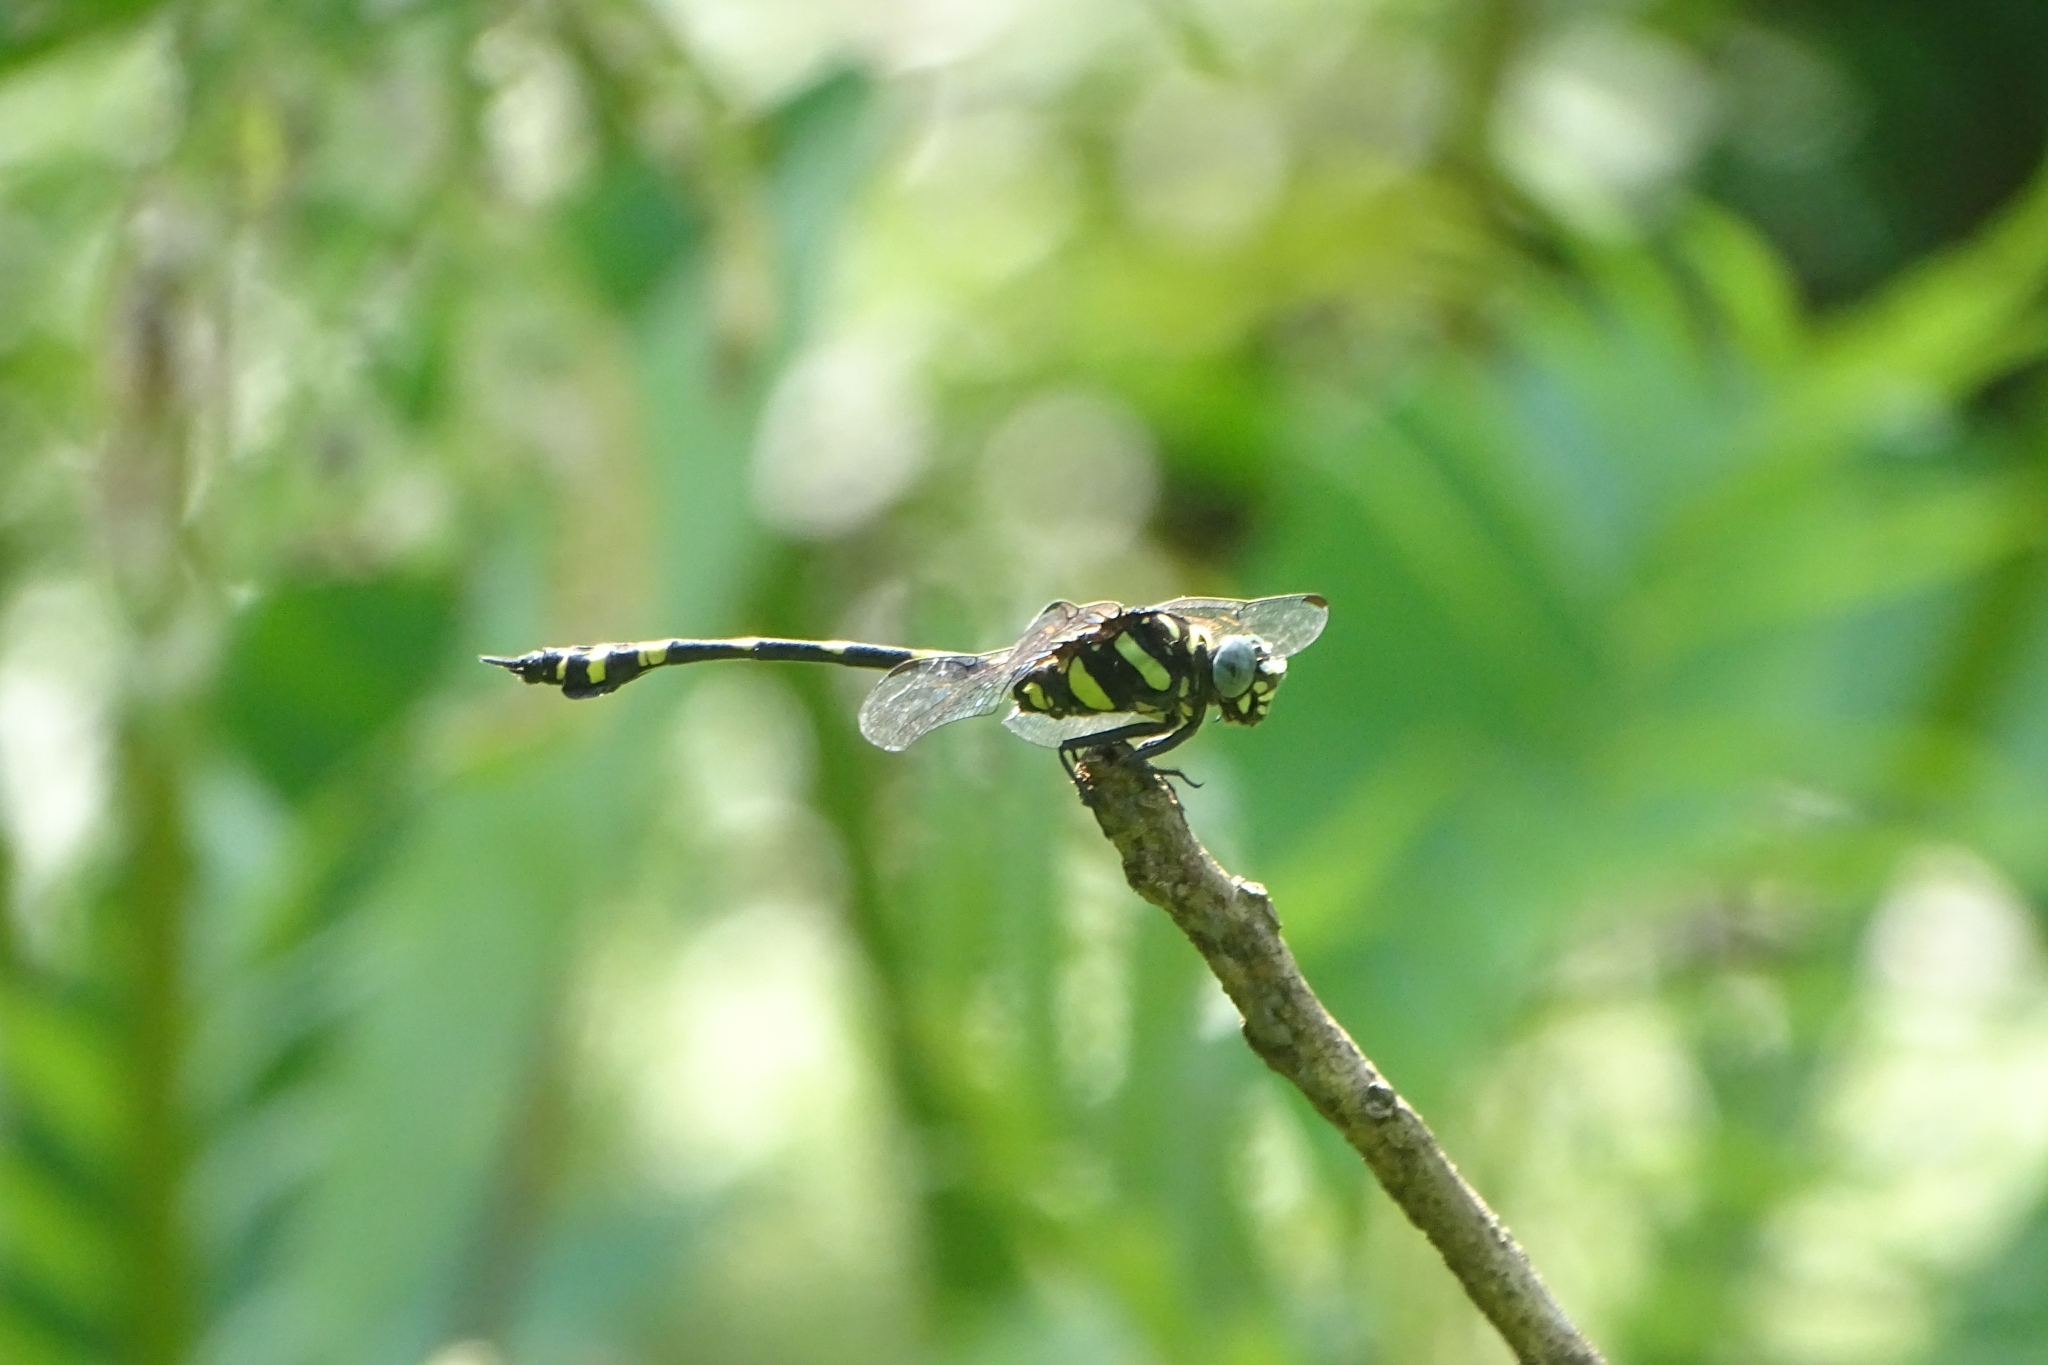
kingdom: Animalia
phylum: Arthropoda
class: Insecta
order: Odonata
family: Gomphidae
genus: Ictinogomphus
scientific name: Ictinogomphus rapax
